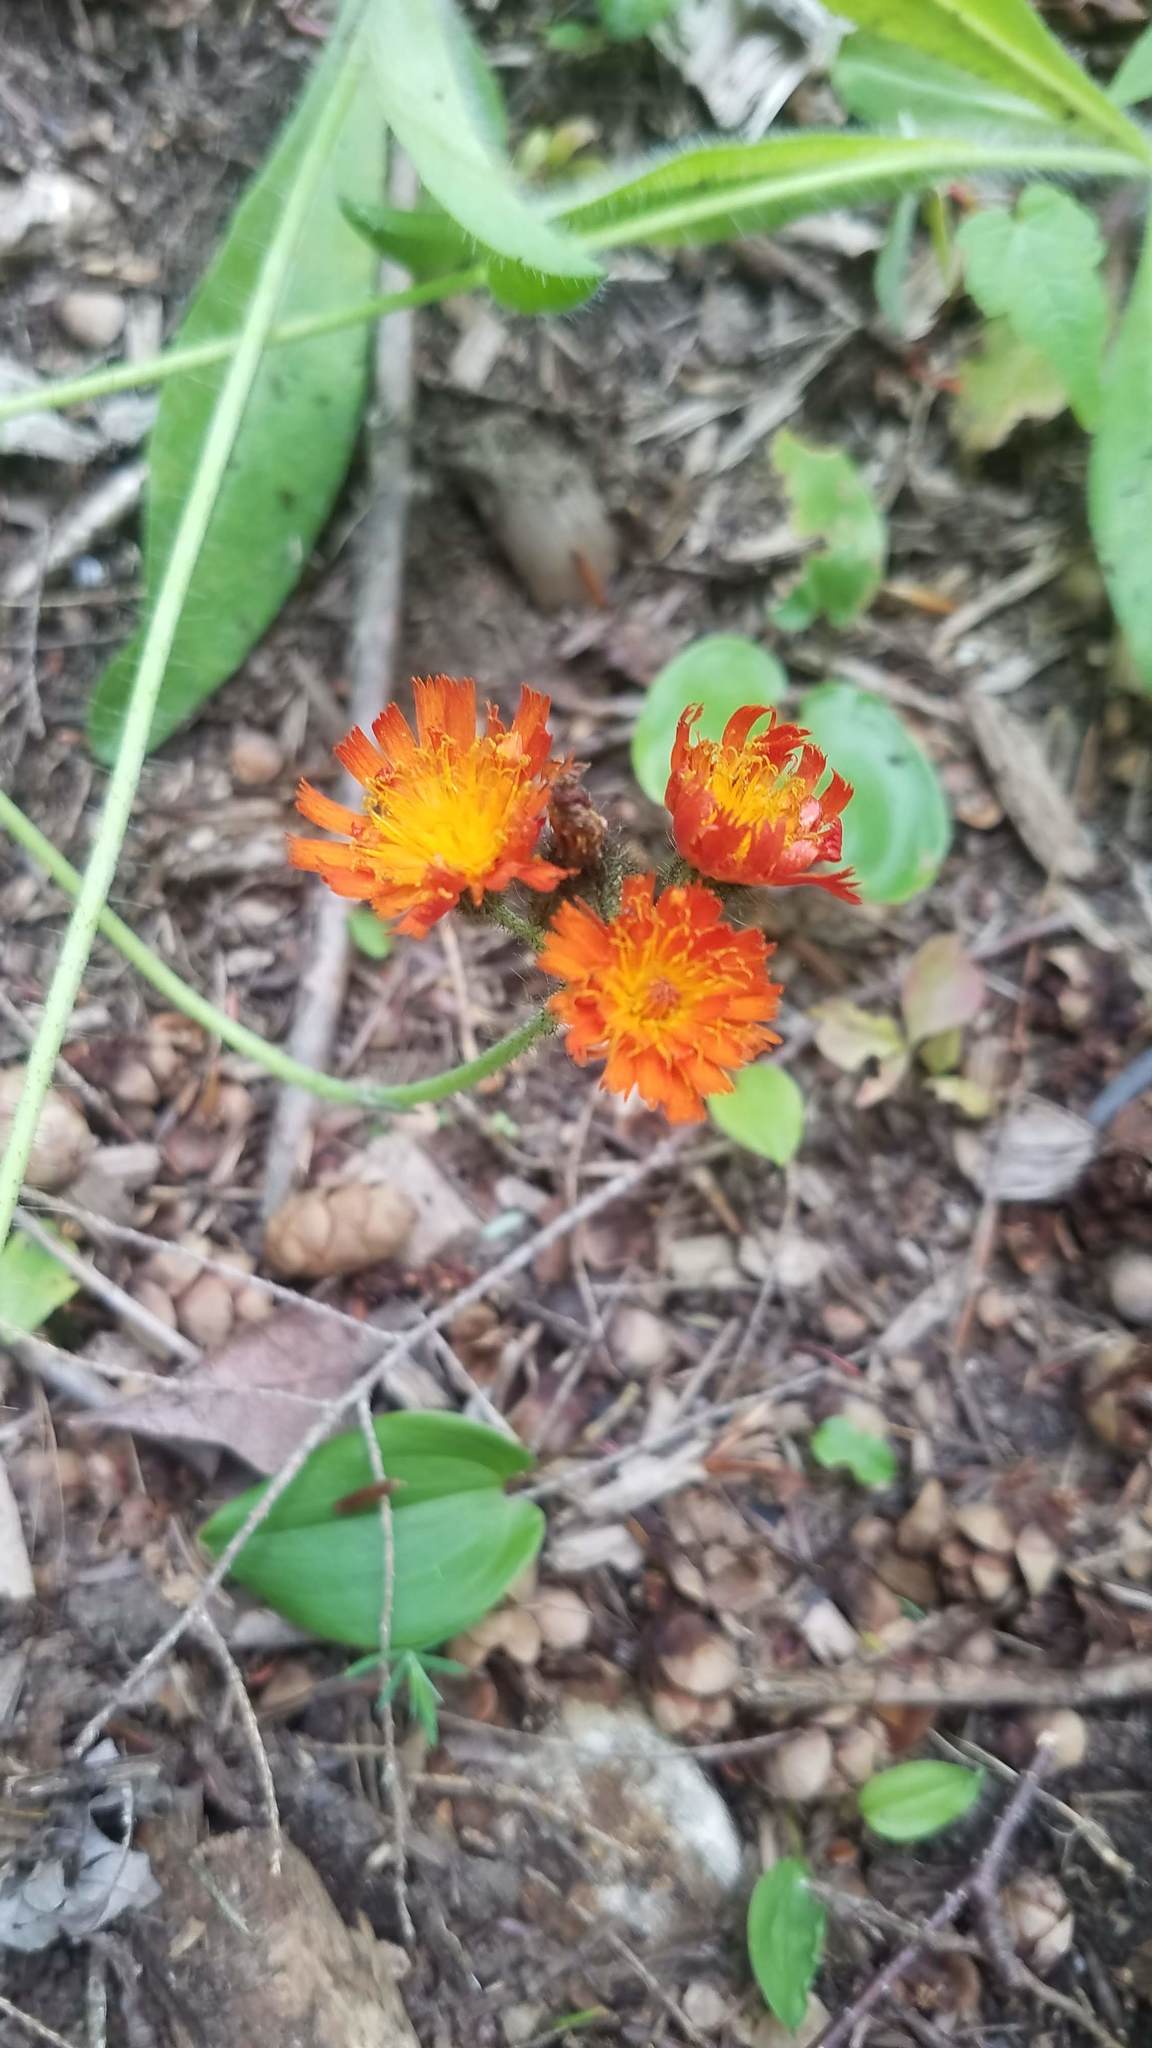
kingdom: Plantae
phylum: Tracheophyta
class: Magnoliopsida
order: Asterales
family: Asteraceae
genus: Pilosella
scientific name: Pilosella aurantiaca
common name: Fox-and-cubs
